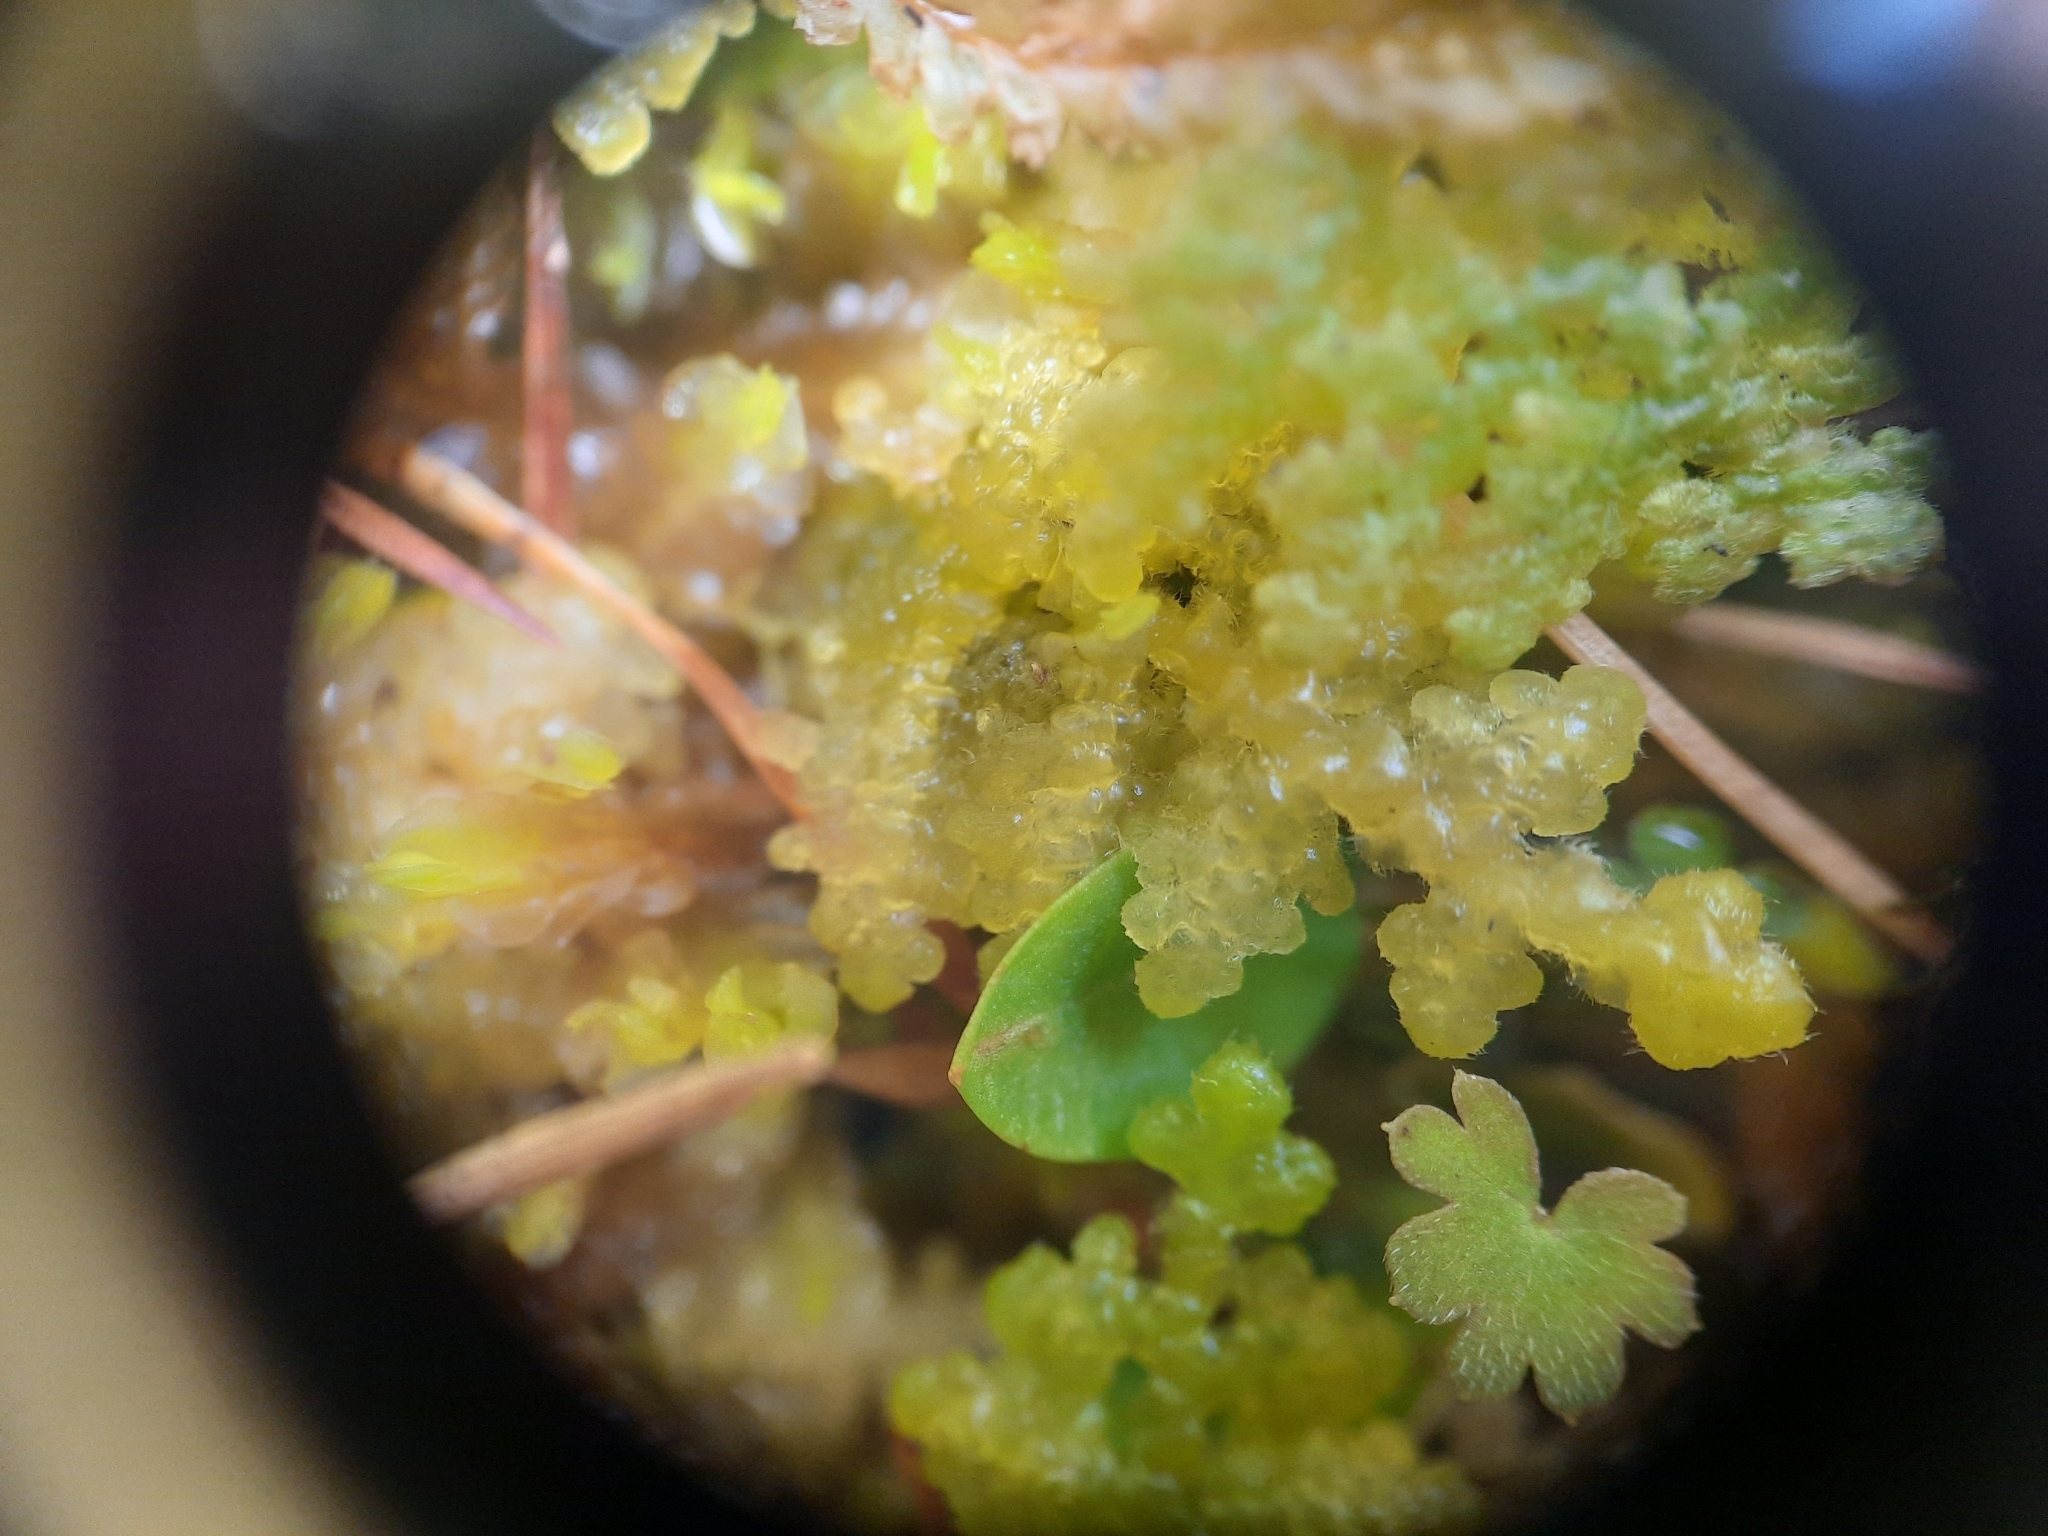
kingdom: Plantae
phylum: Marchantiophyta
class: Jungermanniopsida
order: Jungermanniales
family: Trichocoleaceae
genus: Trichocolea
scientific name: Trichocolea mollissima
